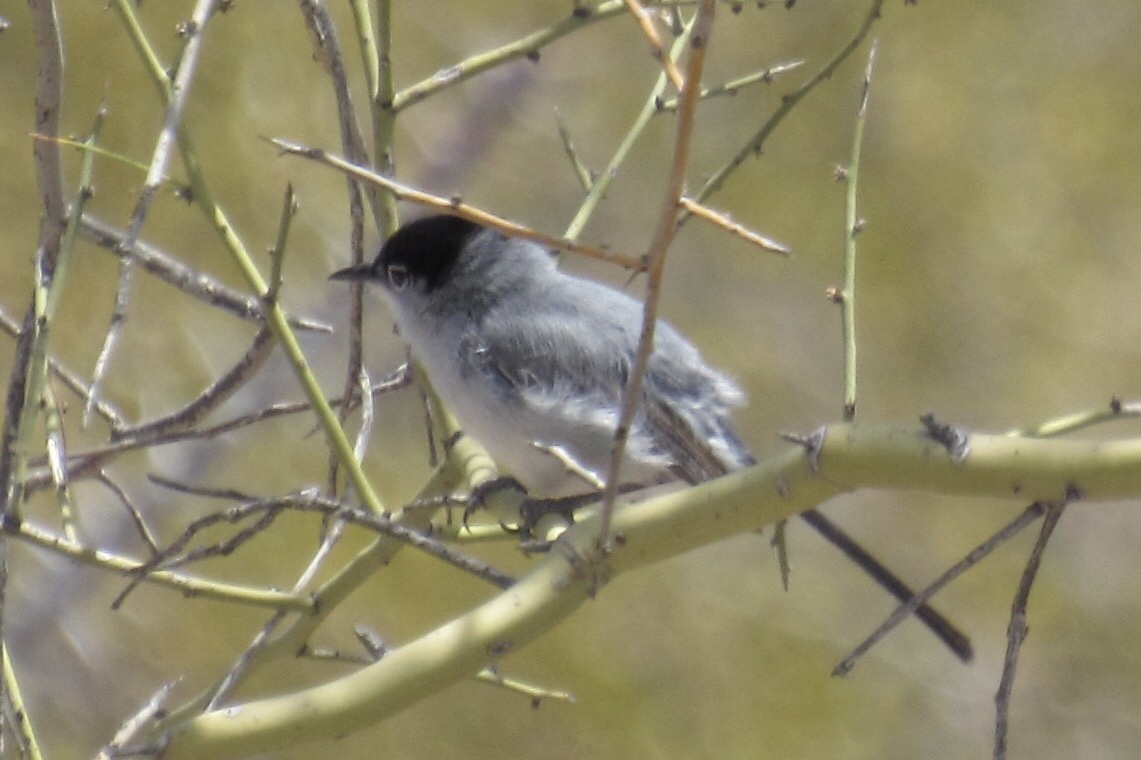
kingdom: Animalia
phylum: Chordata
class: Aves
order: Passeriformes
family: Polioptilidae
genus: Polioptila
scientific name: Polioptila melanura
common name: Black-tailed gnatcatcher
